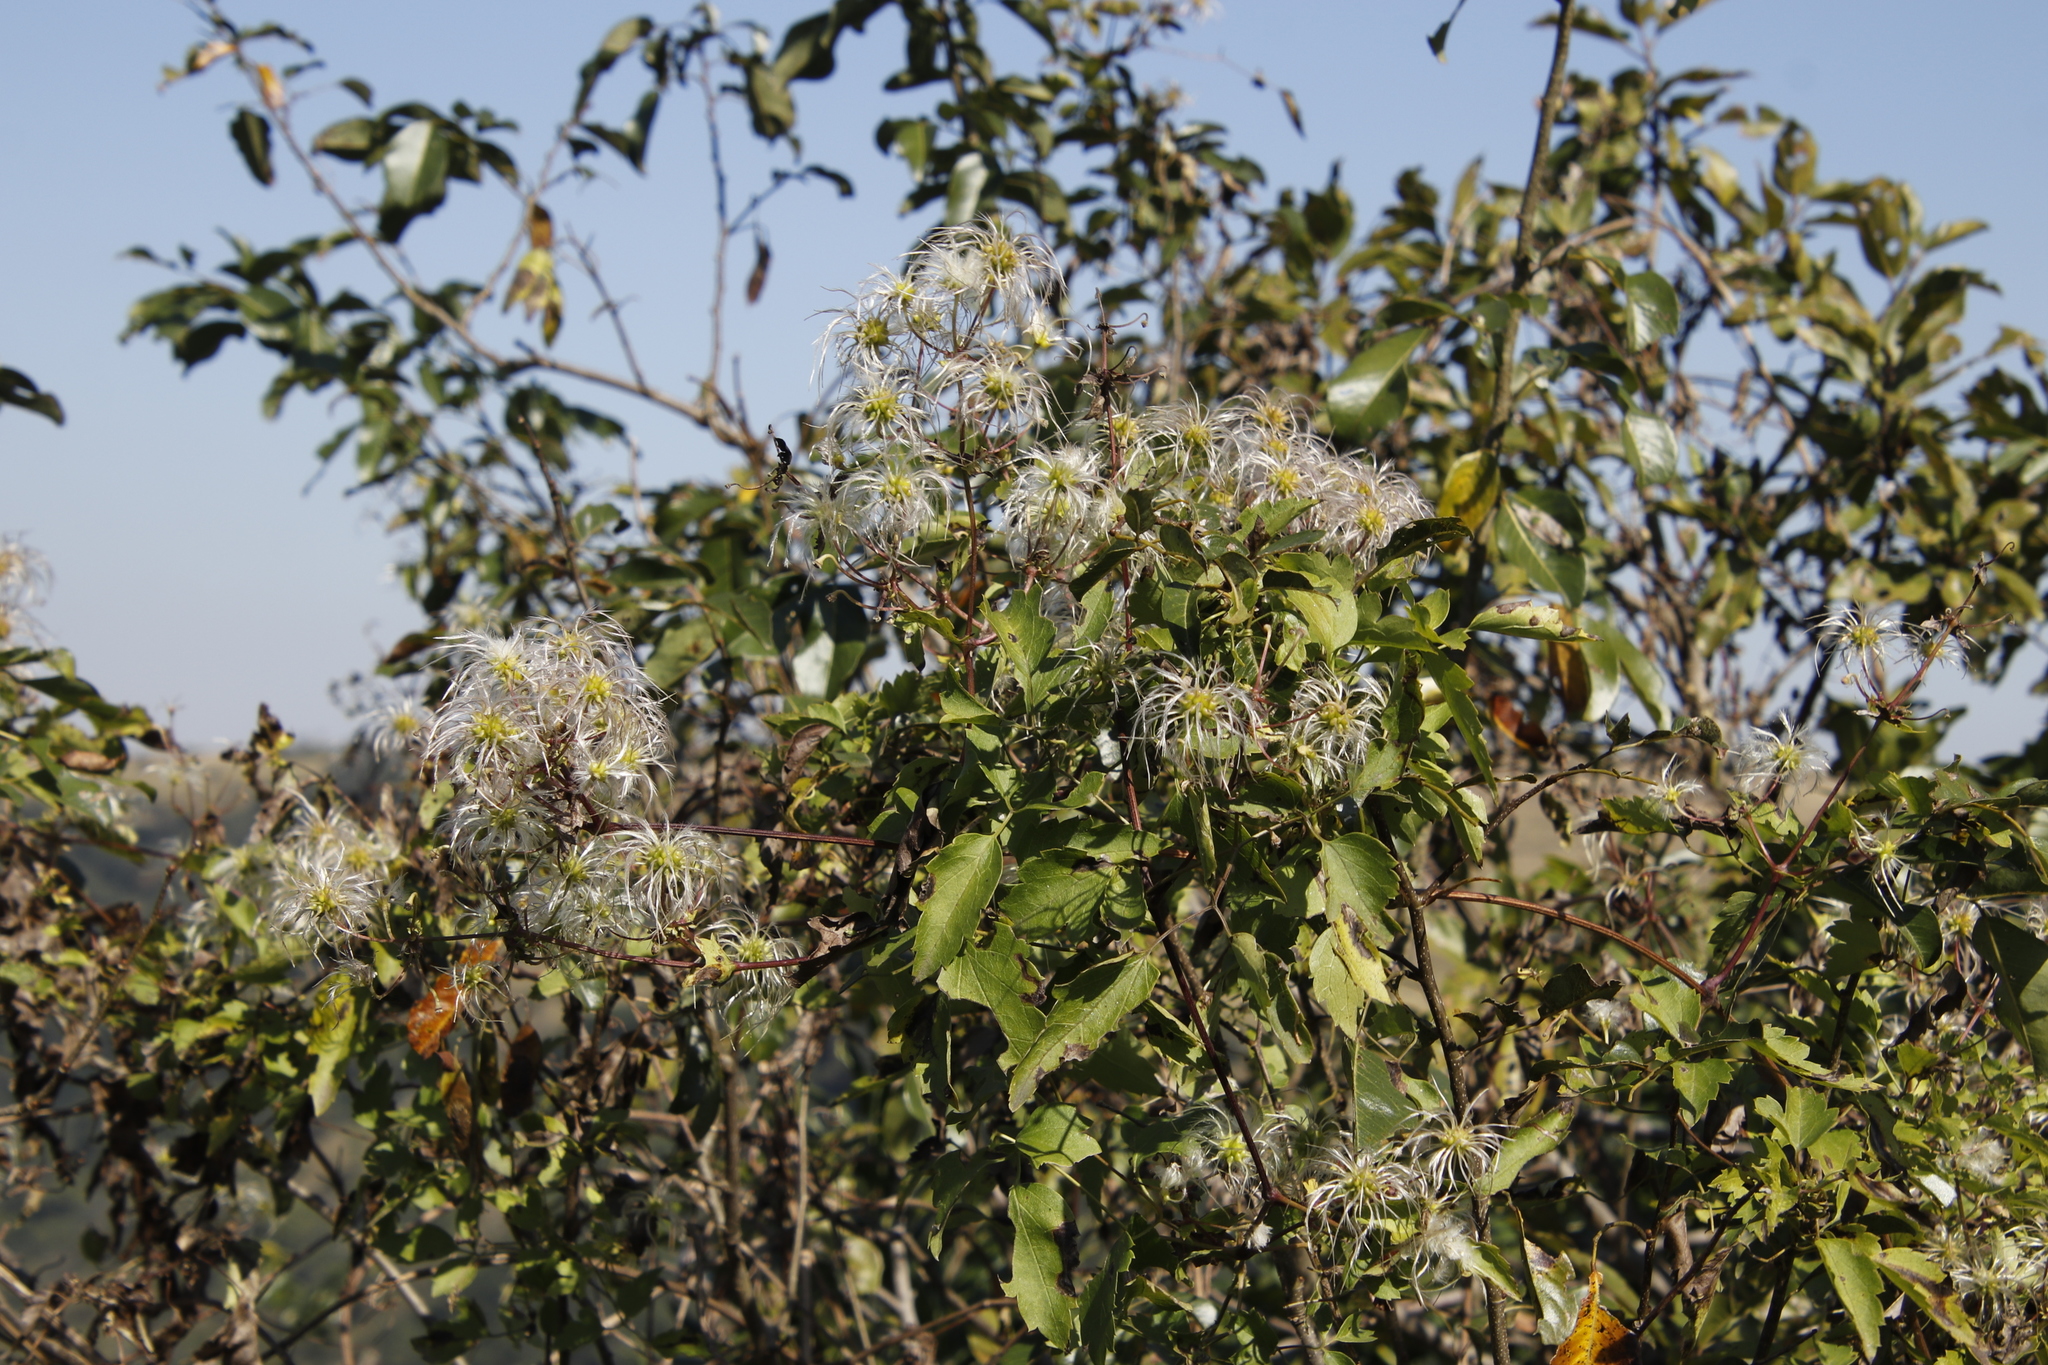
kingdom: Plantae
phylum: Tracheophyta
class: Magnoliopsida
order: Ranunculales
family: Ranunculaceae
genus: Clematis
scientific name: Clematis brachiata
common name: Traveler's-joy
